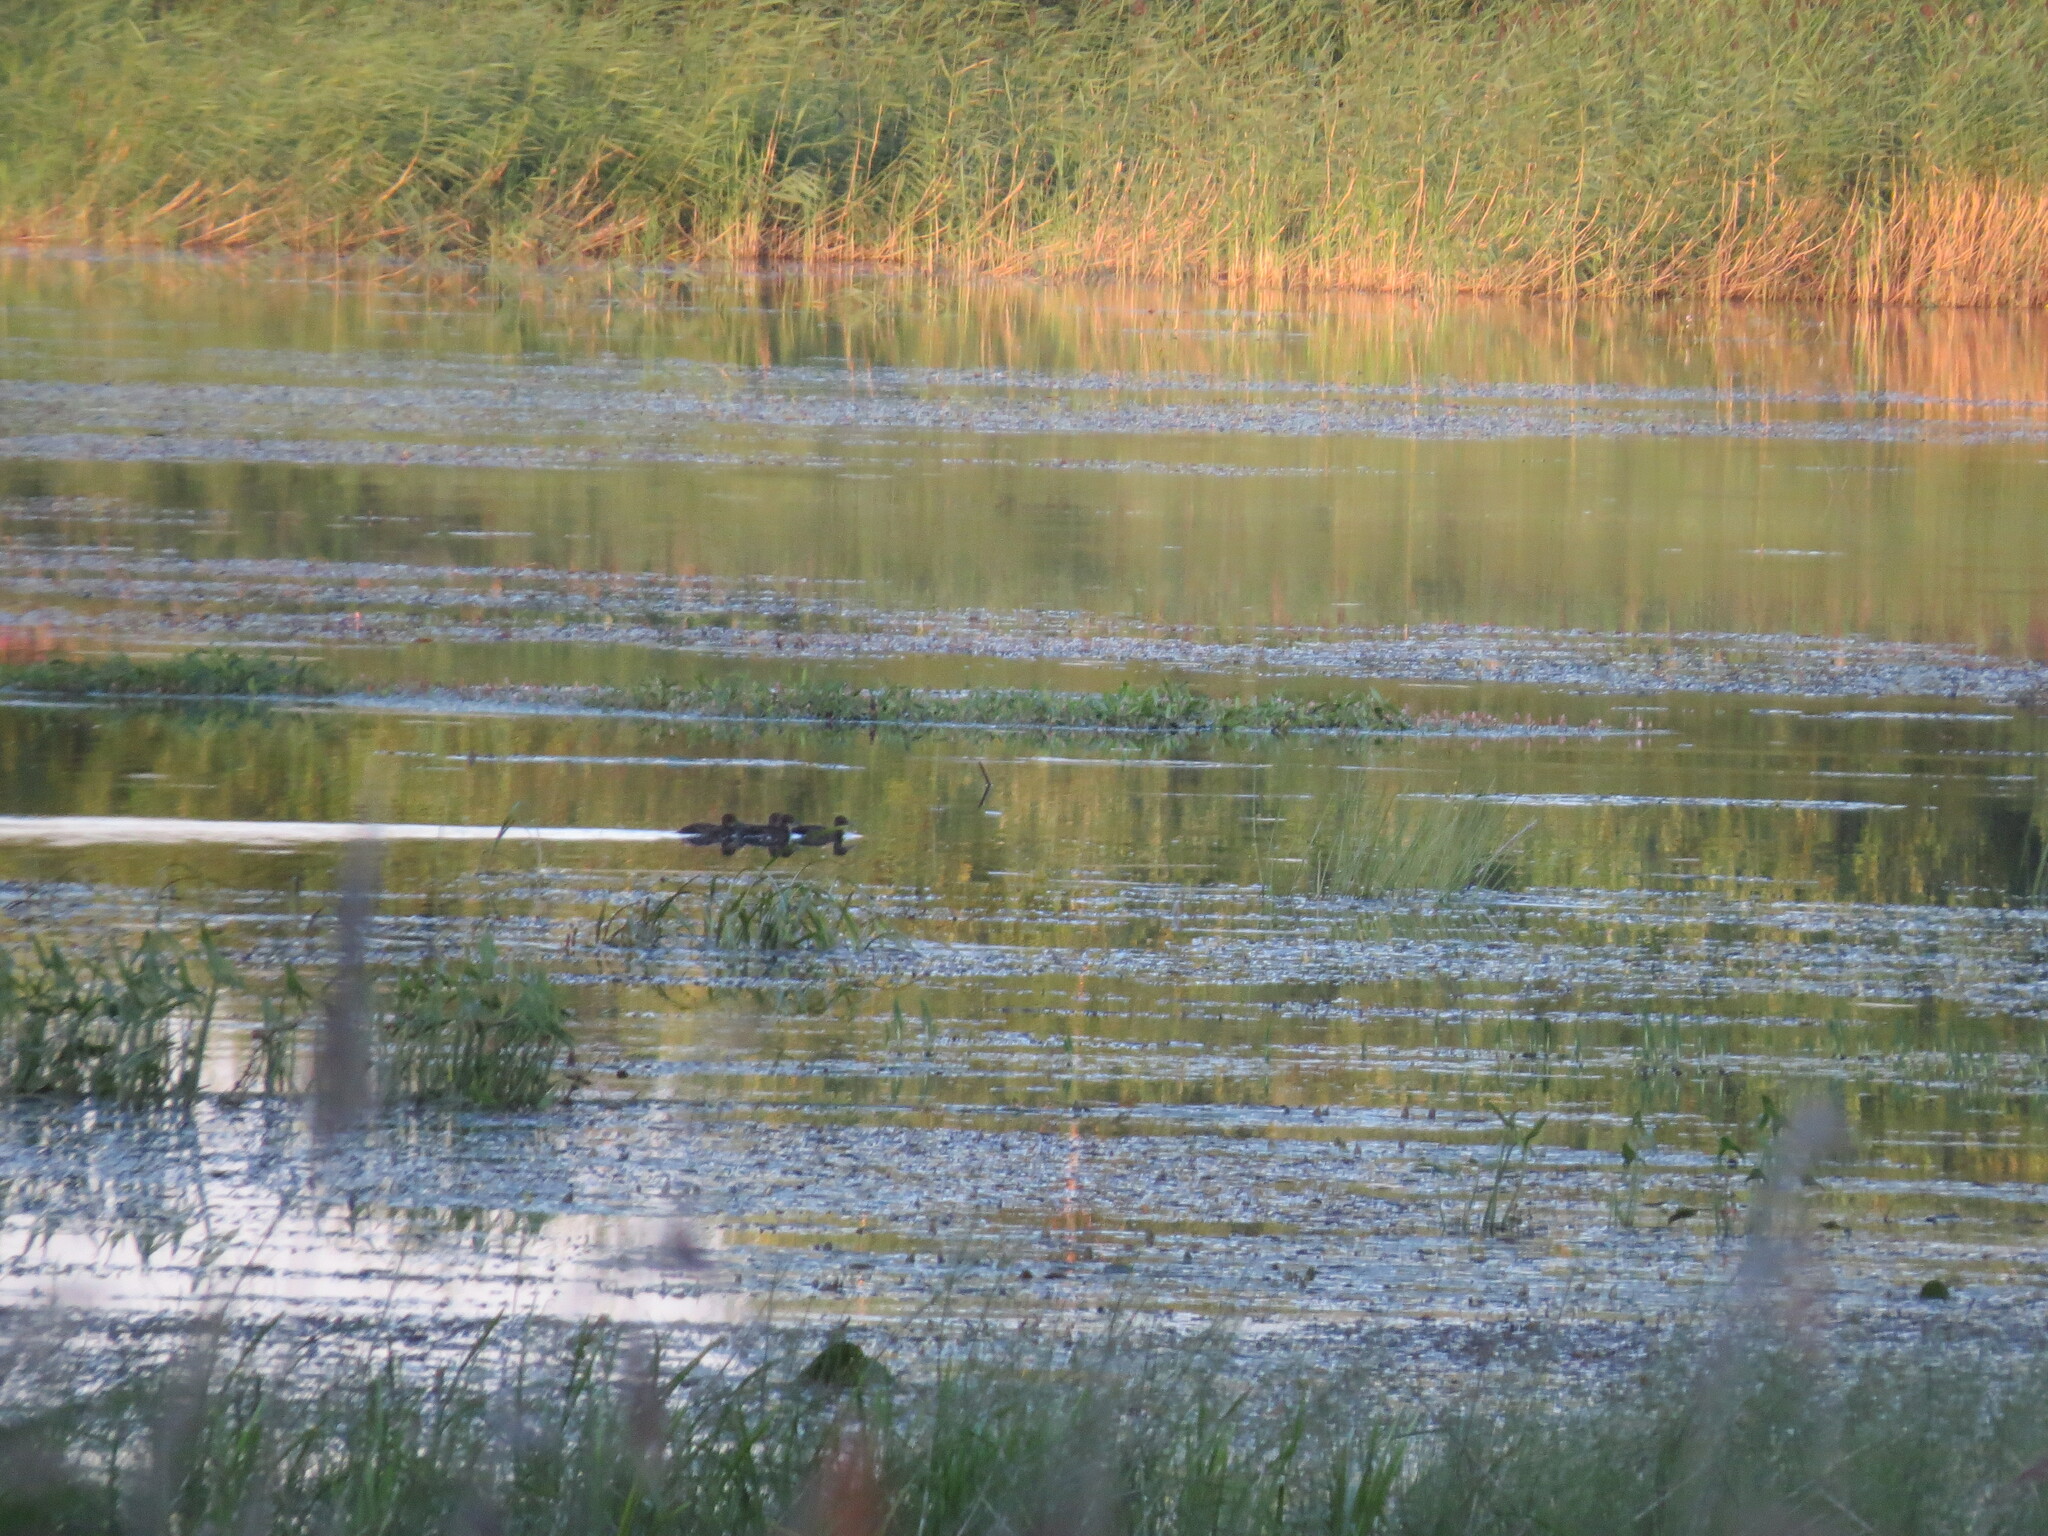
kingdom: Animalia
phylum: Chordata
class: Aves
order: Anseriformes
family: Anatidae
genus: Aythya
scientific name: Aythya fuligula
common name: Tufted duck
